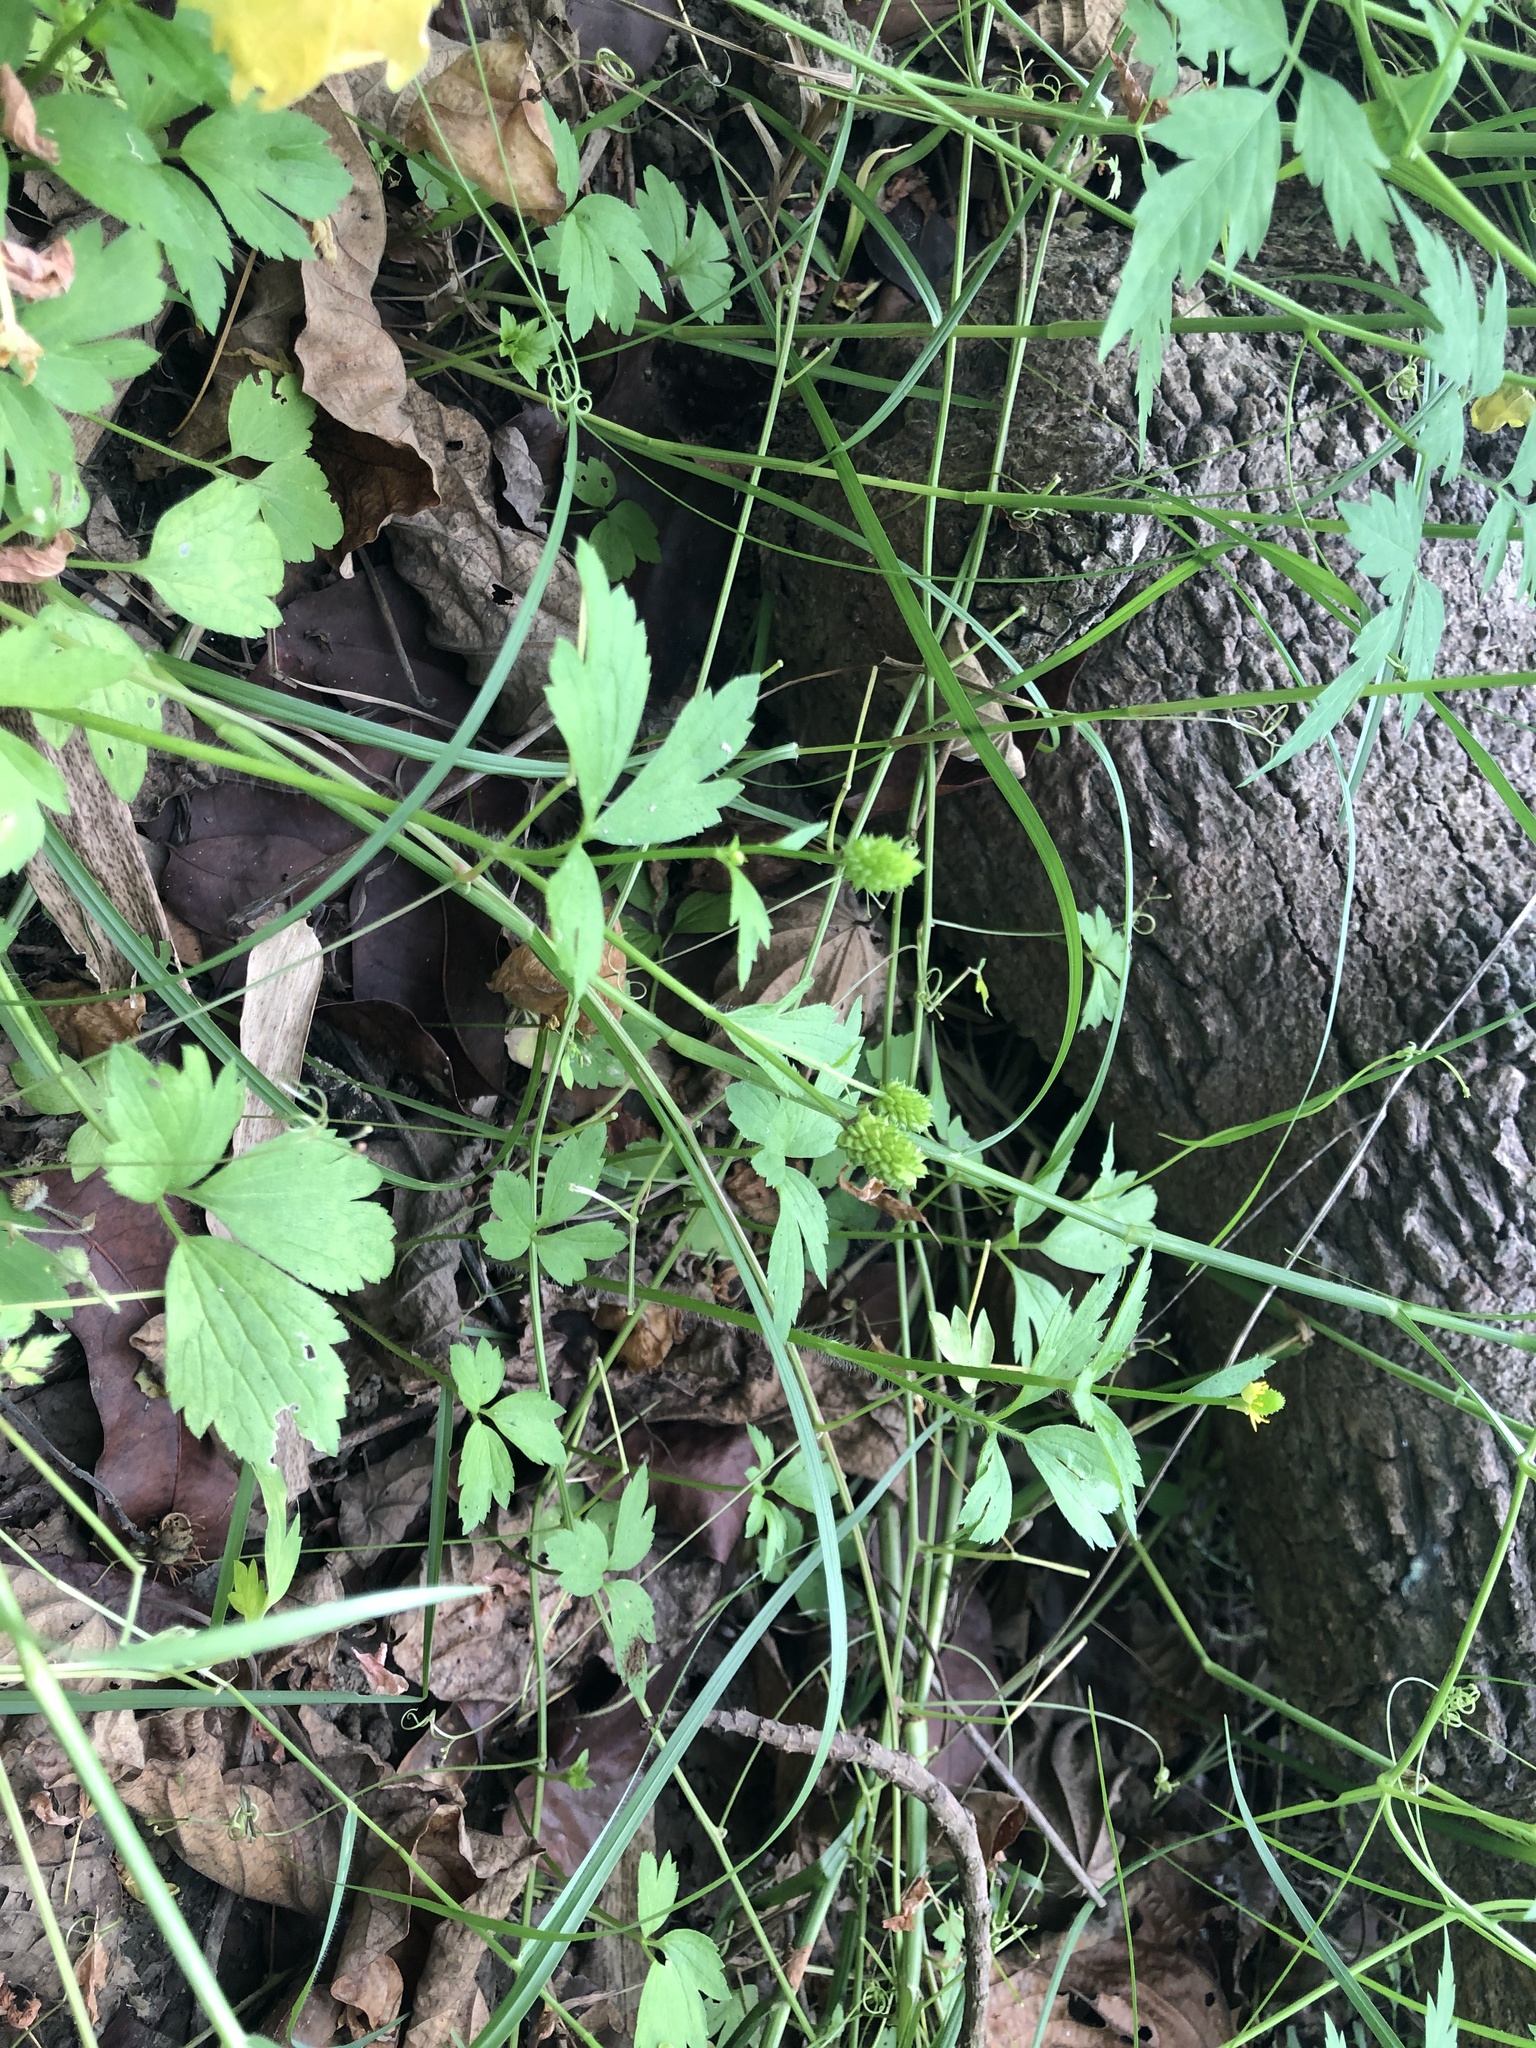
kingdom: Plantae
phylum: Tracheophyta
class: Magnoliopsida
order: Ranunculales
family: Ranunculaceae
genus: Ranunculus
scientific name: Ranunculus chinensis
